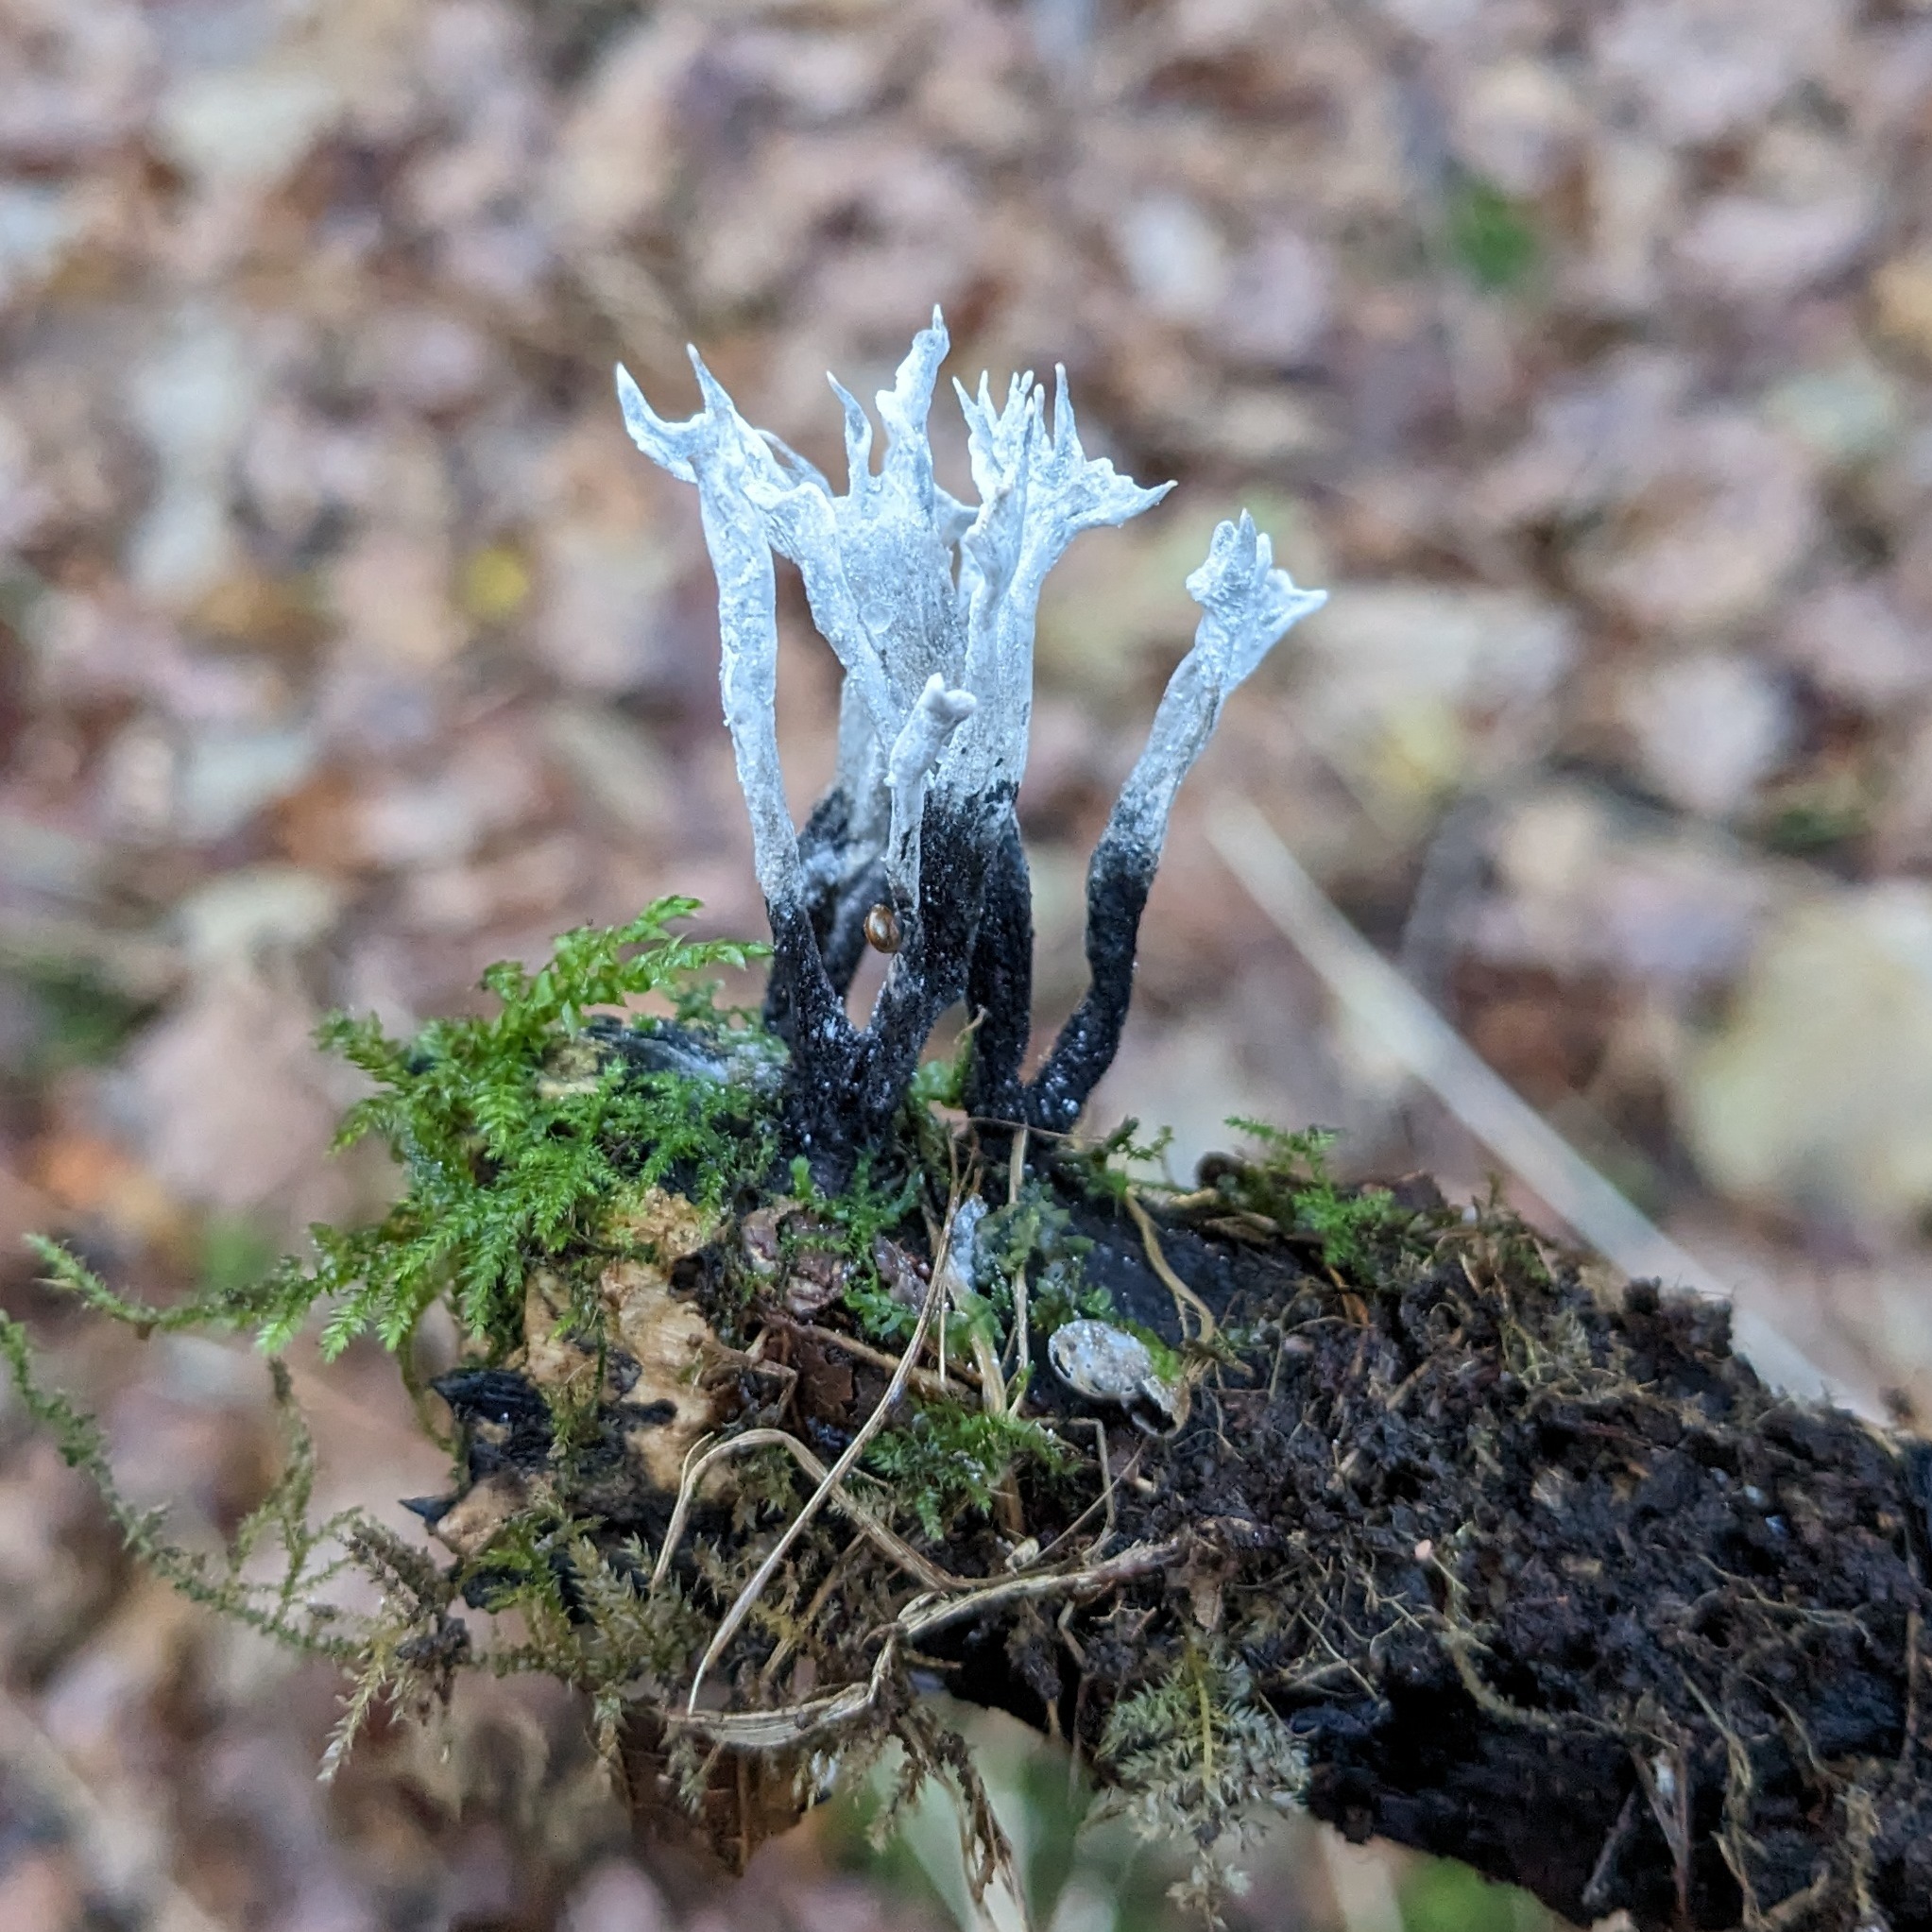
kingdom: Fungi
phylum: Ascomycota
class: Sordariomycetes
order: Xylariales
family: Xylariaceae
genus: Xylaria
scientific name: Xylaria hypoxylon
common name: Candle-snuff fungus
